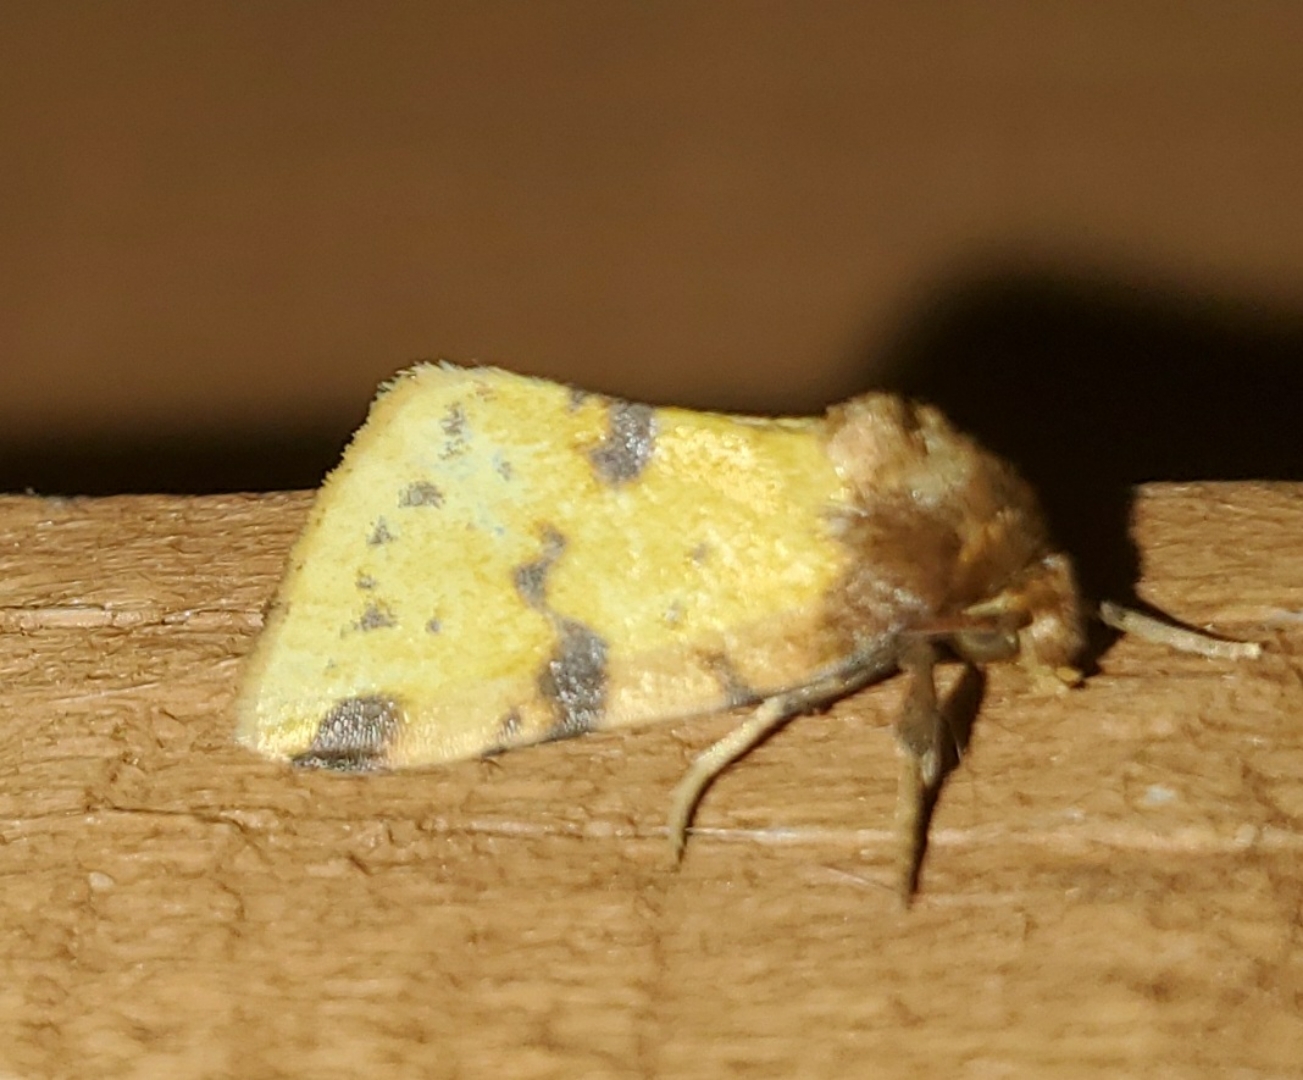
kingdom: Animalia
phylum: Arthropoda
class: Insecta
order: Lepidoptera
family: Noctuidae
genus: Azenia
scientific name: Azenia obtusa
